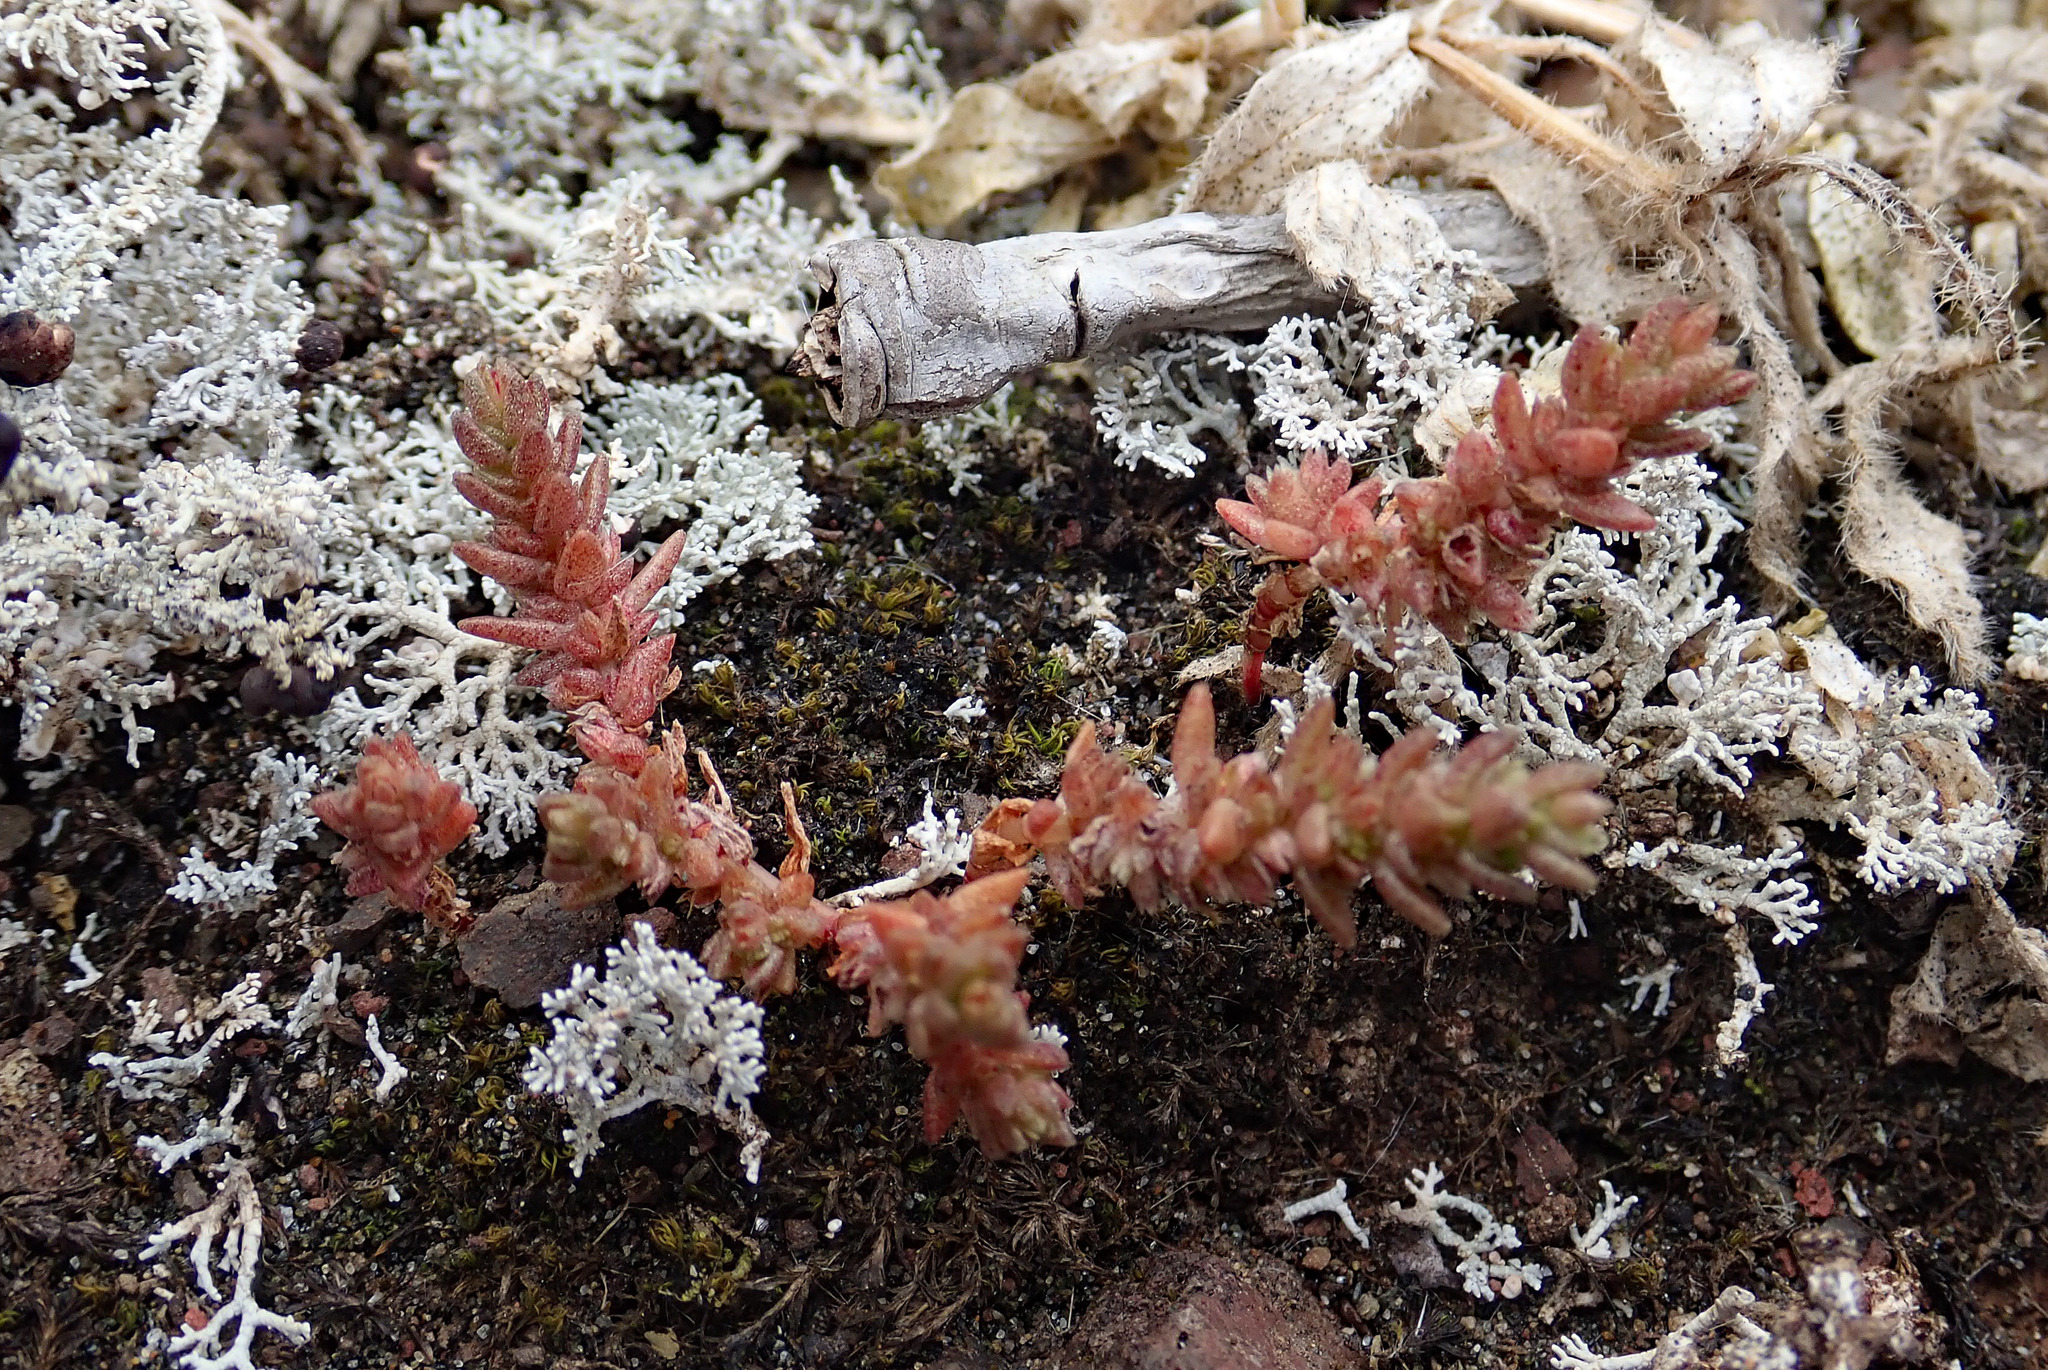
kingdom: Plantae
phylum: Tracheophyta
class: Magnoliopsida
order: Saxifragales
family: Crassulaceae
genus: Crassula
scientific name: Crassula sieberiana
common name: Siberian pygmyweed
